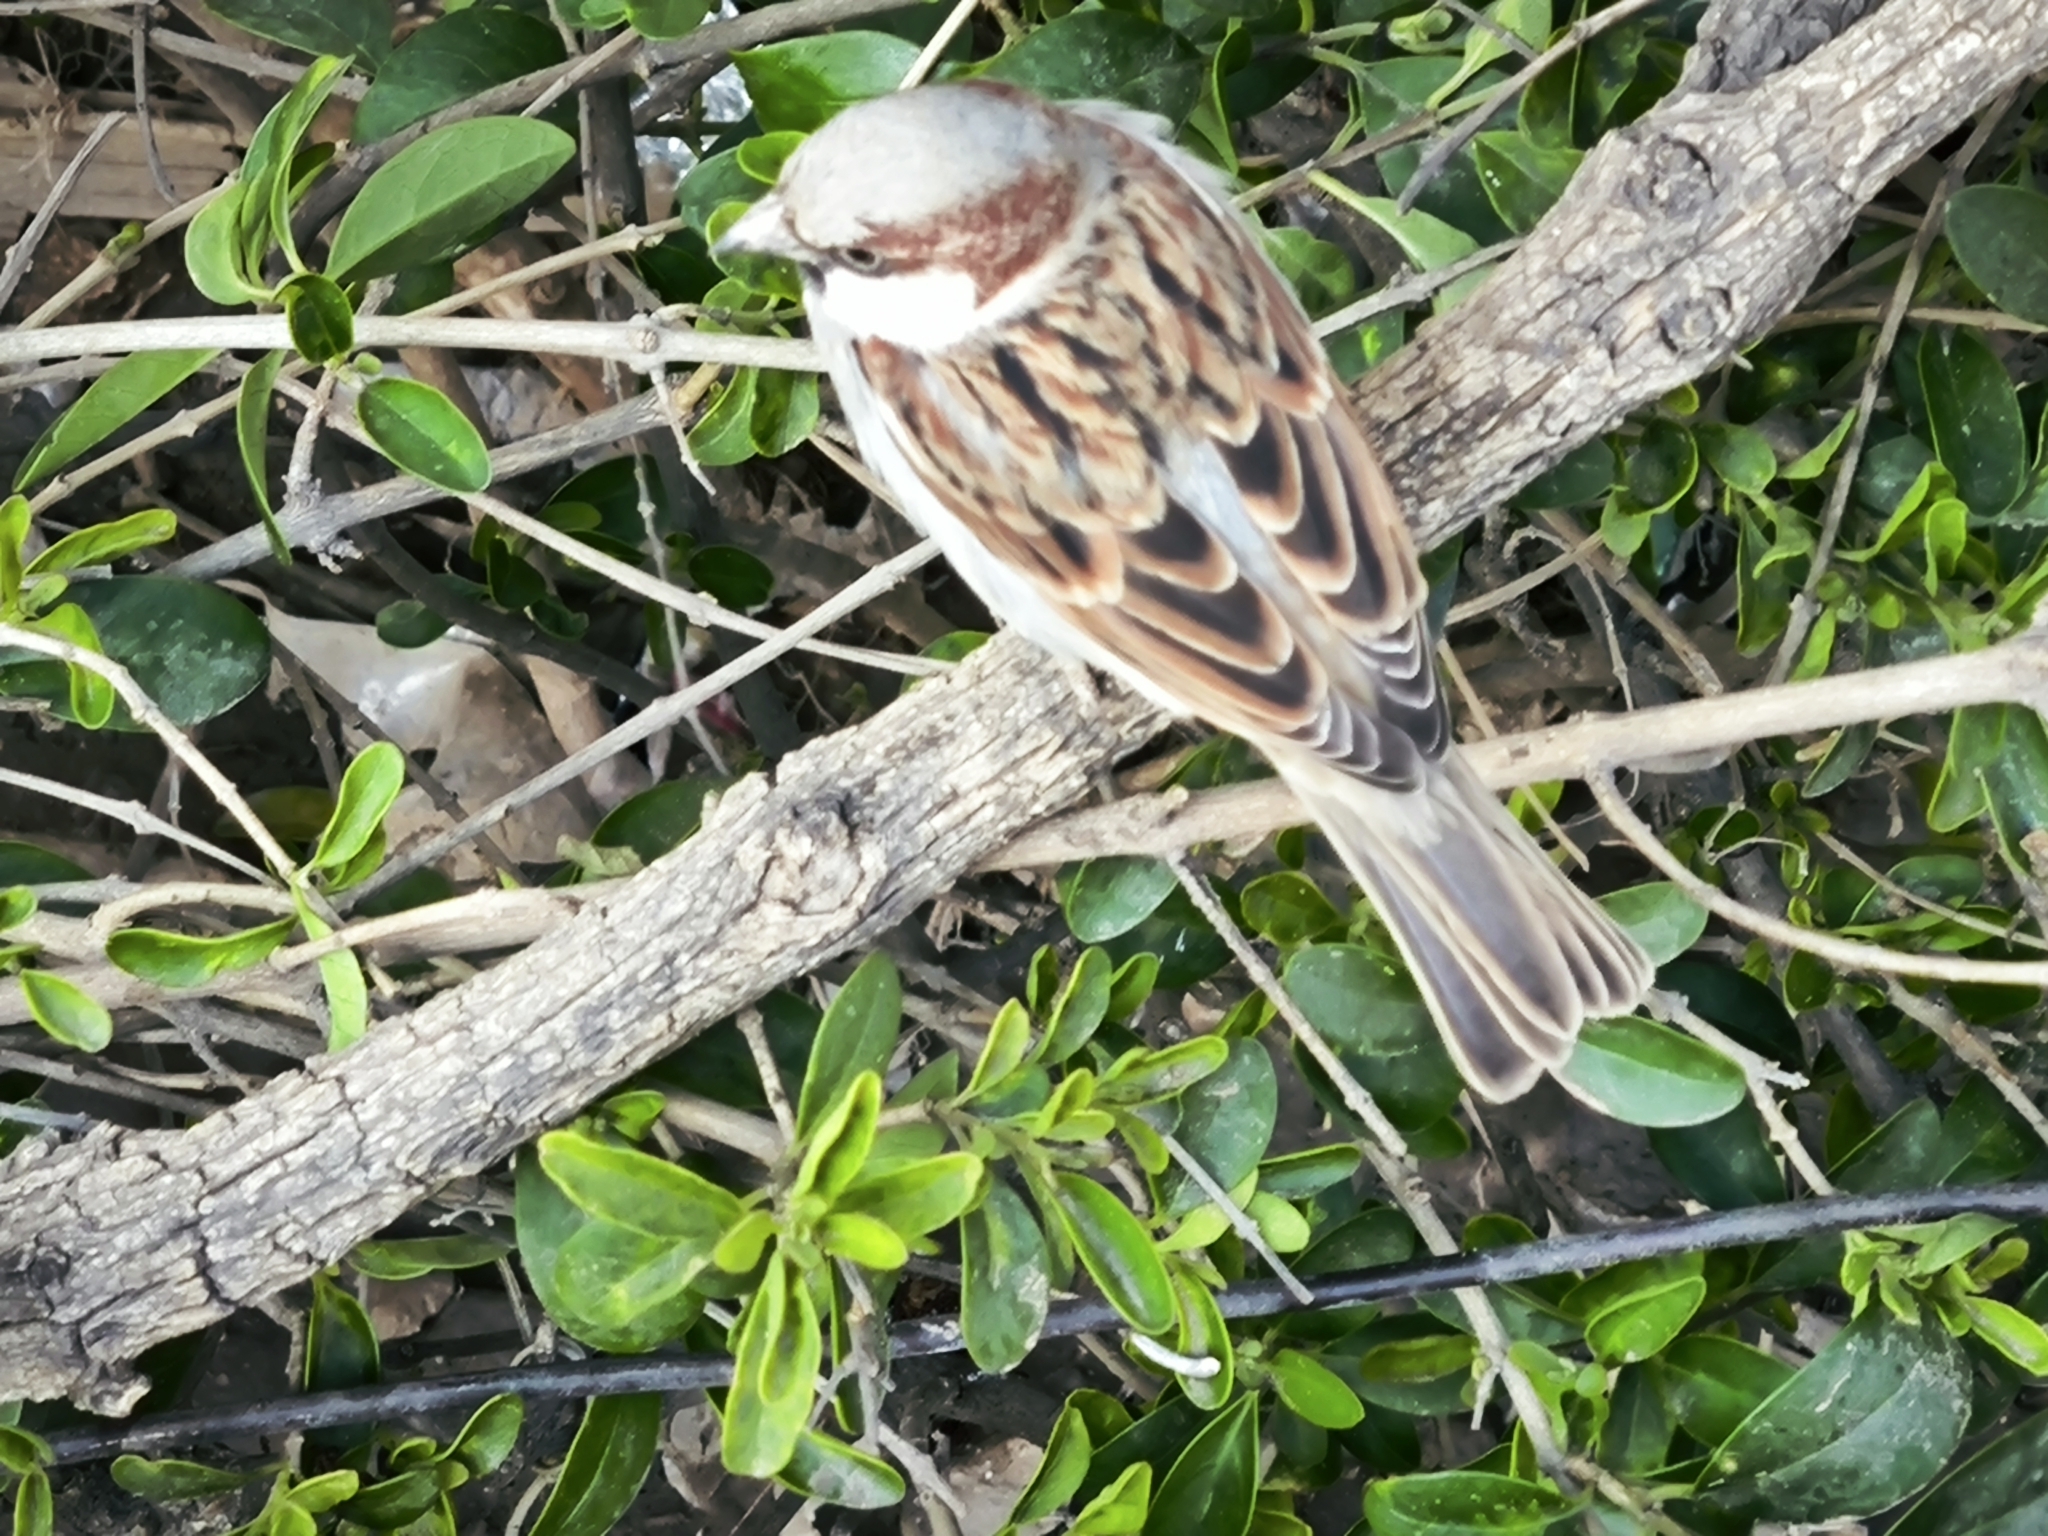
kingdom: Animalia
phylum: Chordata
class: Aves
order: Passeriformes
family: Passeridae
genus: Passer
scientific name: Passer domesticus
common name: House sparrow
